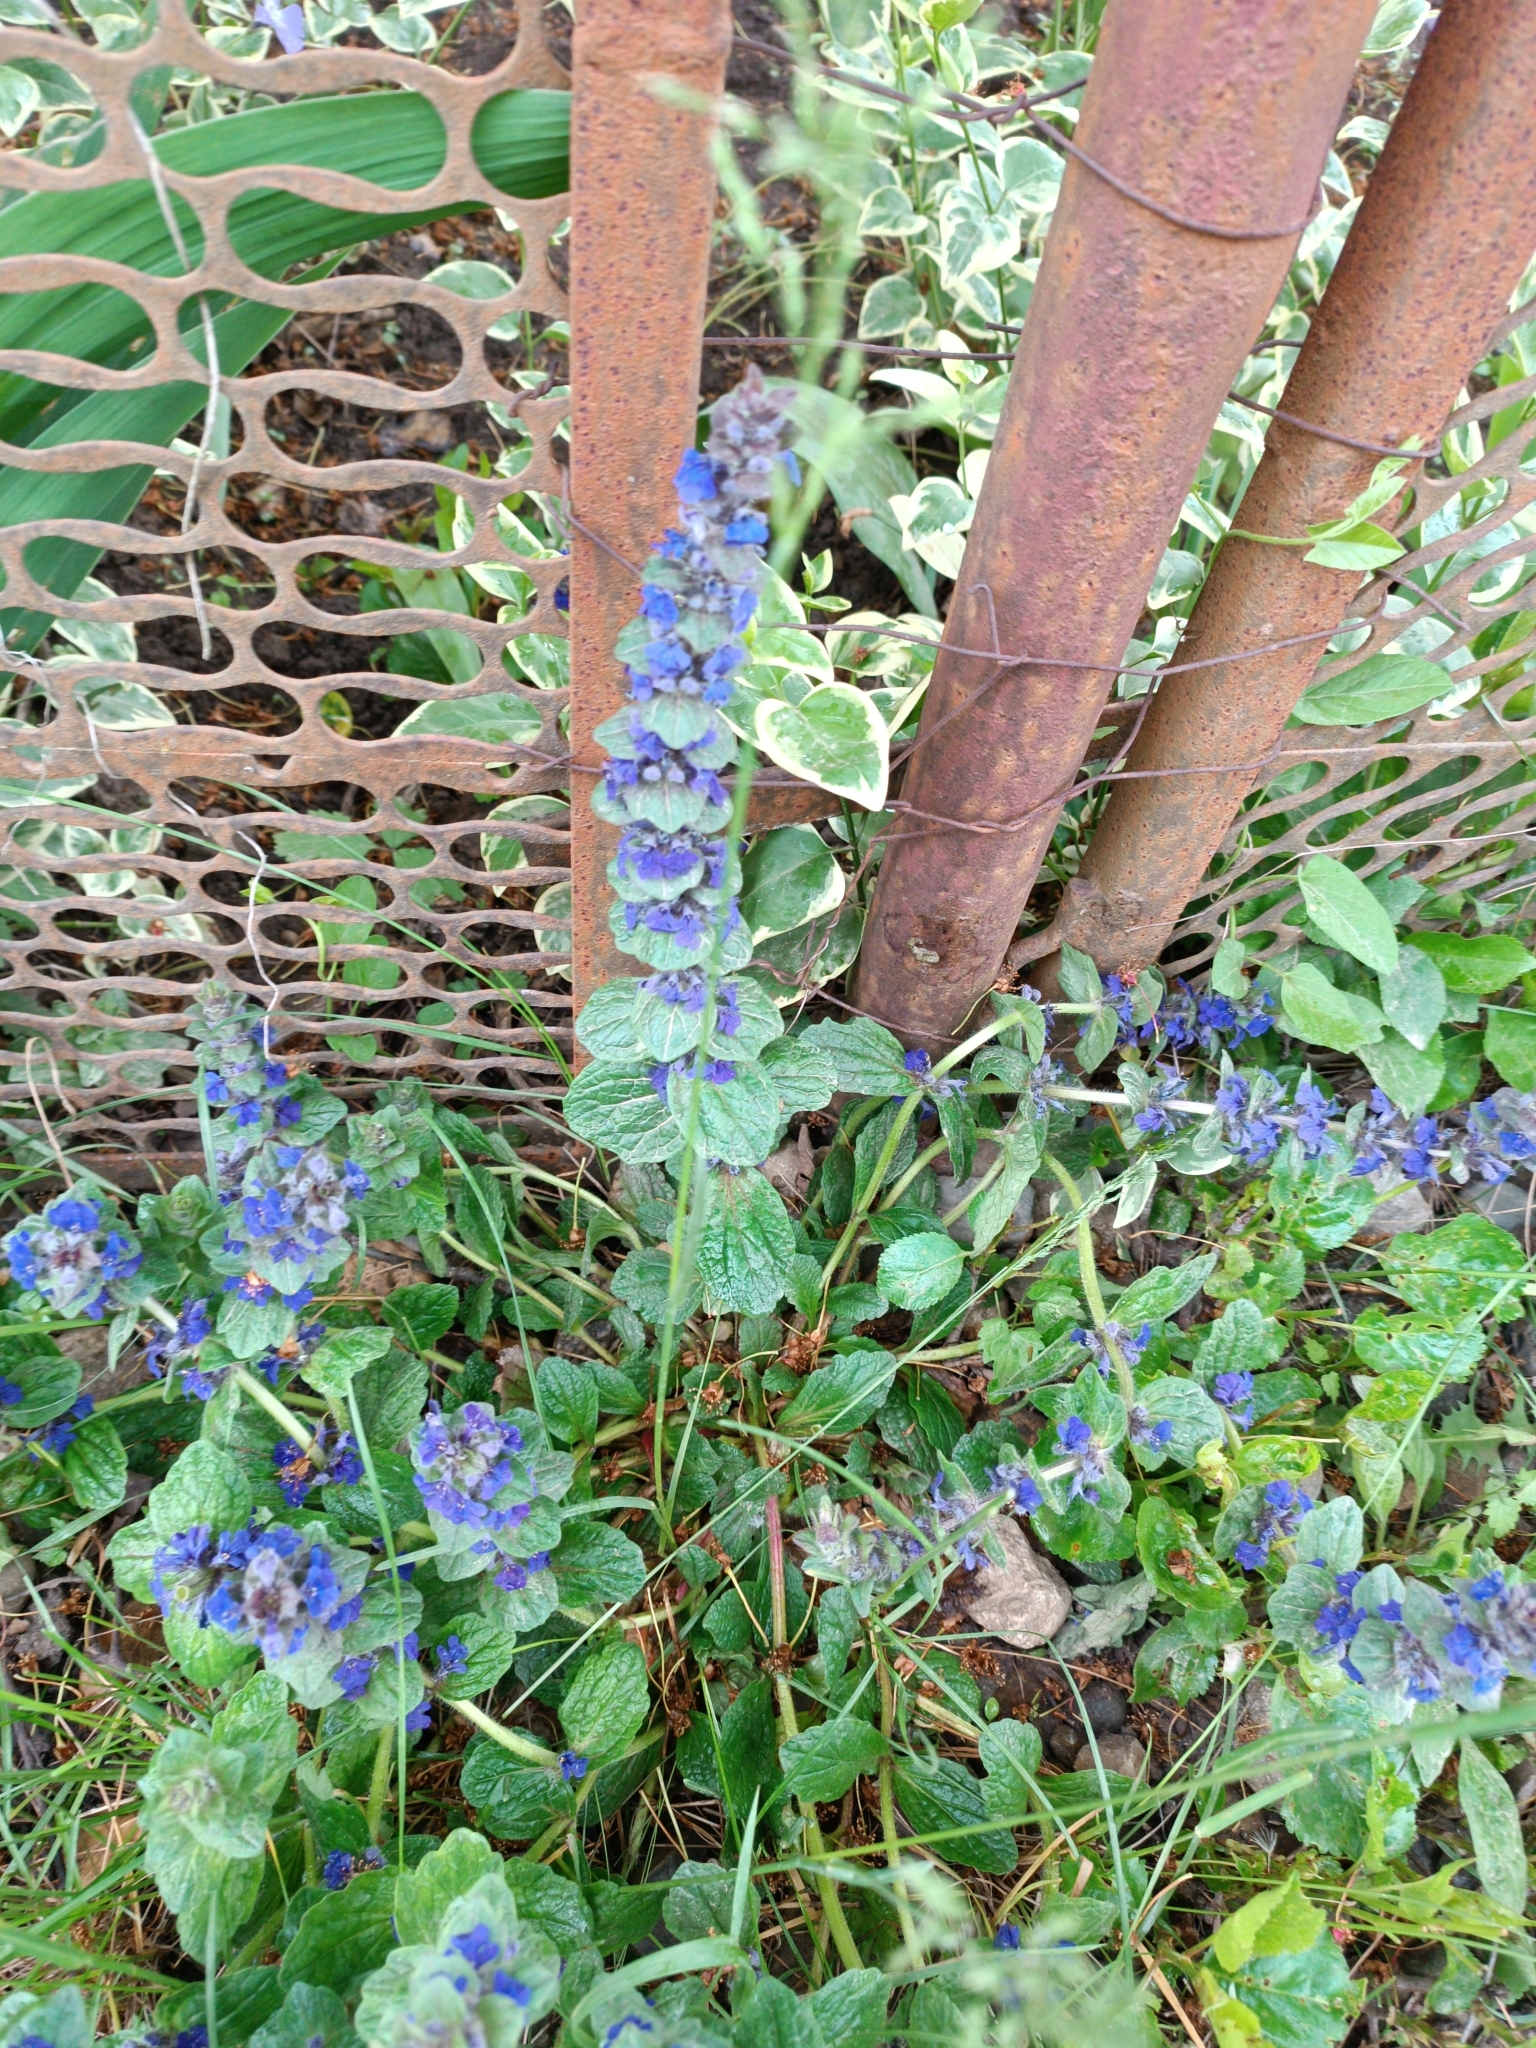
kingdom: Plantae
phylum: Tracheophyta
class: Magnoliopsida
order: Lamiales
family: Lamiaceae
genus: Ajuga
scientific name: Ajuga reptans
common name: Bugle
